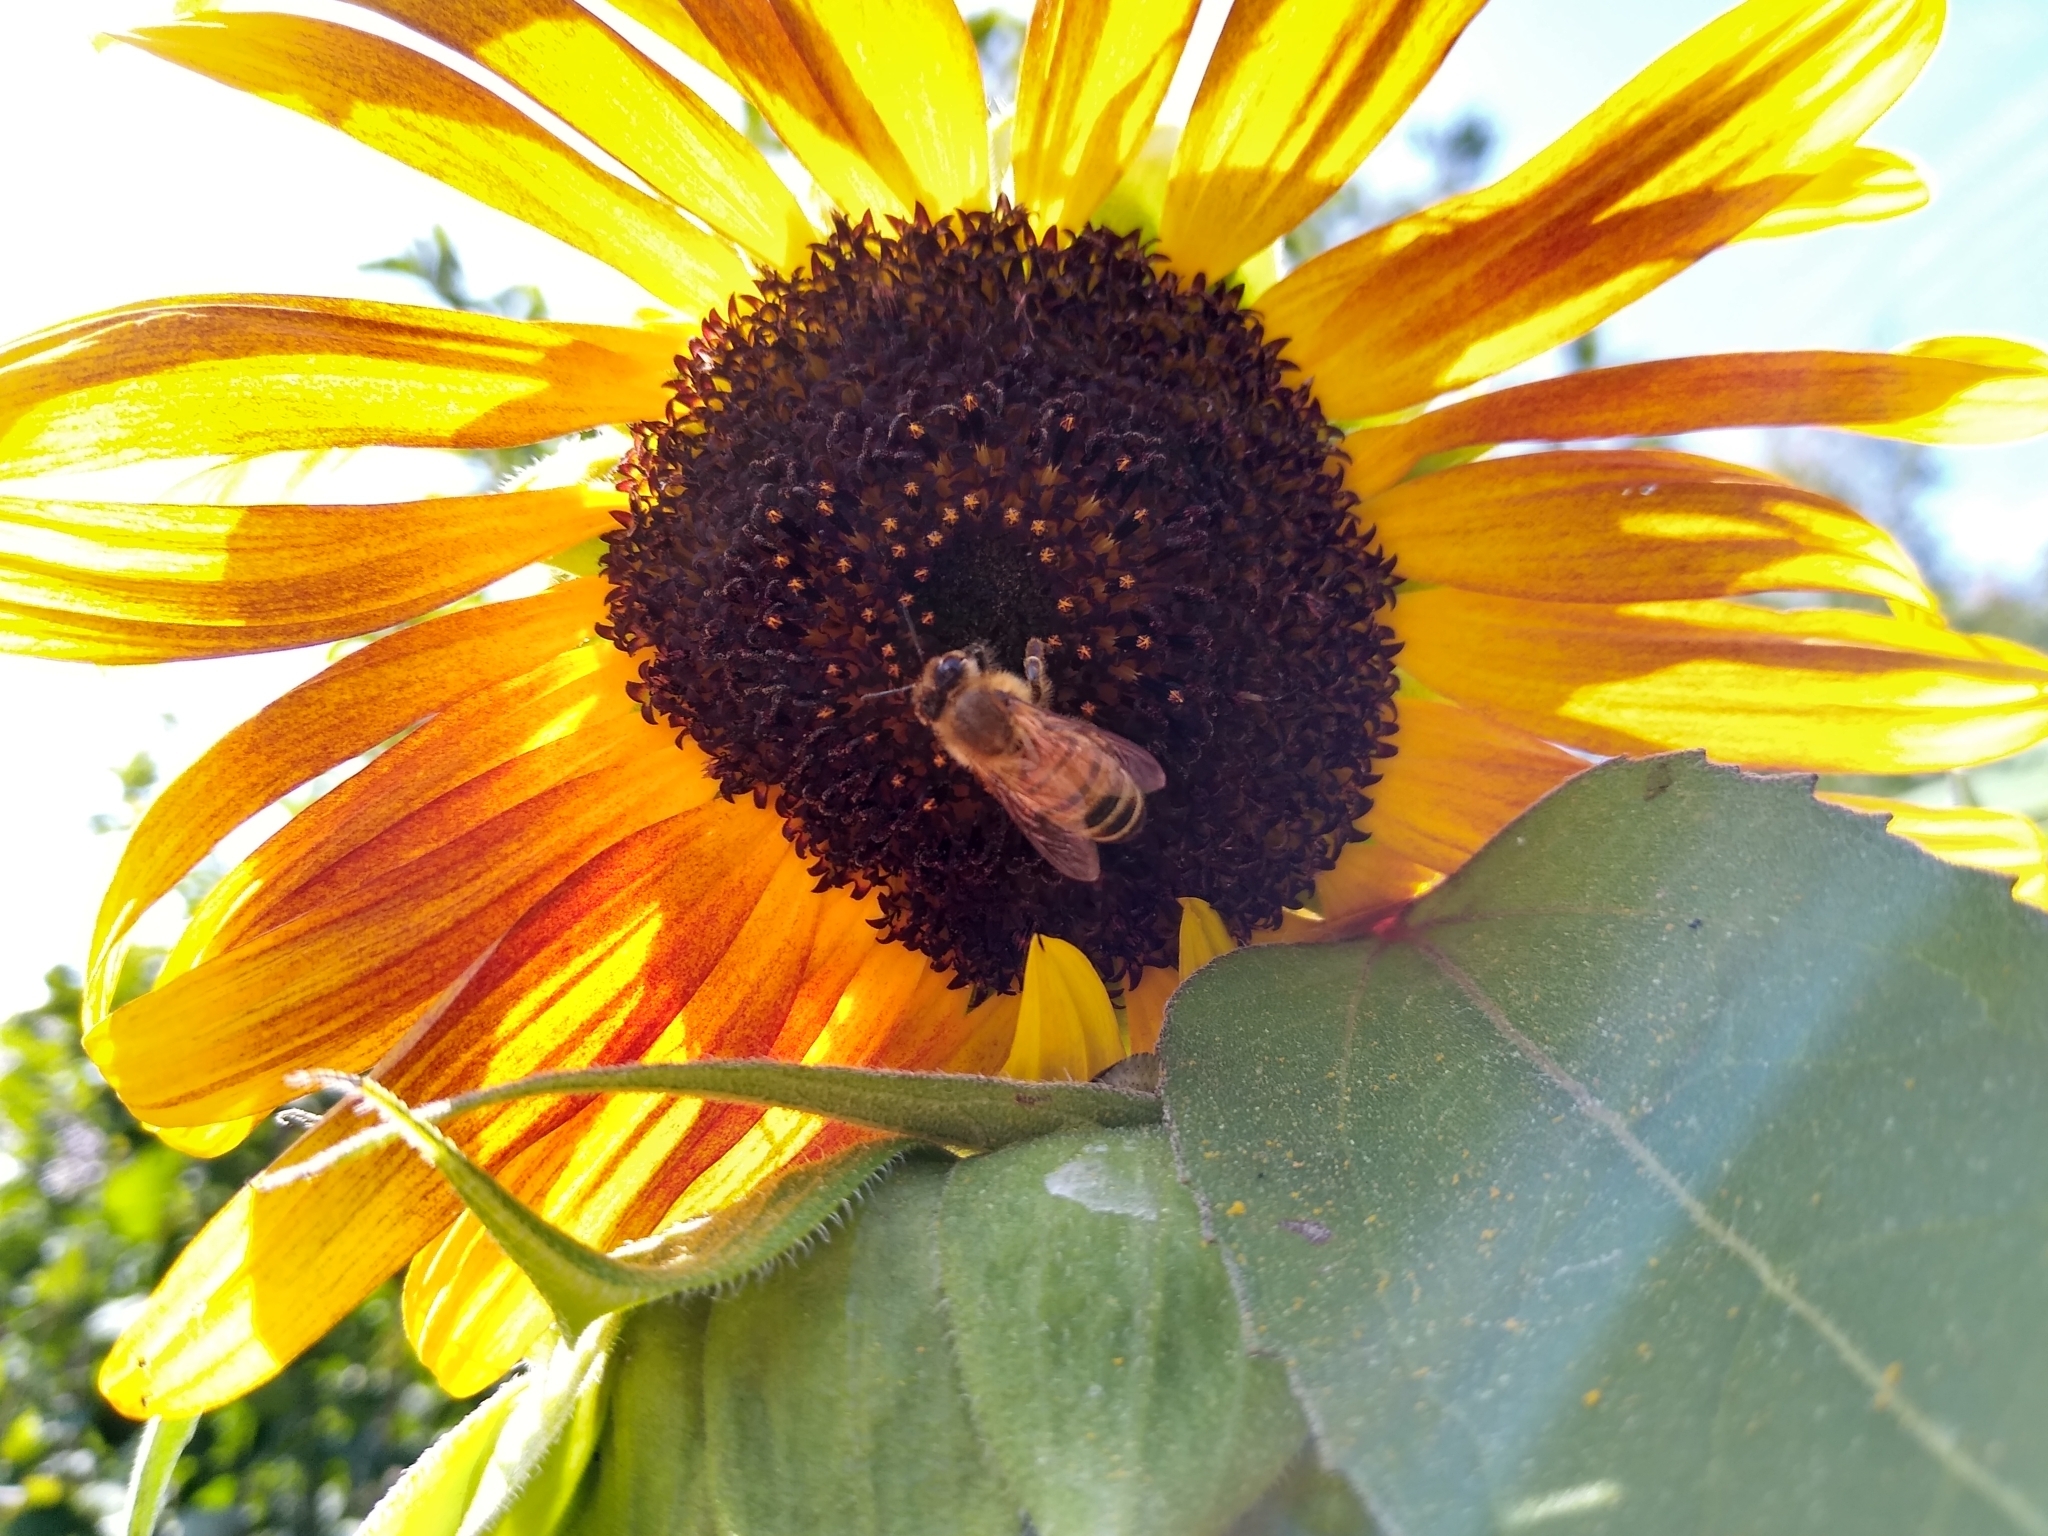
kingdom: Animalia
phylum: Arthropoda
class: Insecta
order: Hymenoptera
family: Apidae
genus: Apis
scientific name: Apis mellifera
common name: Honey bee
